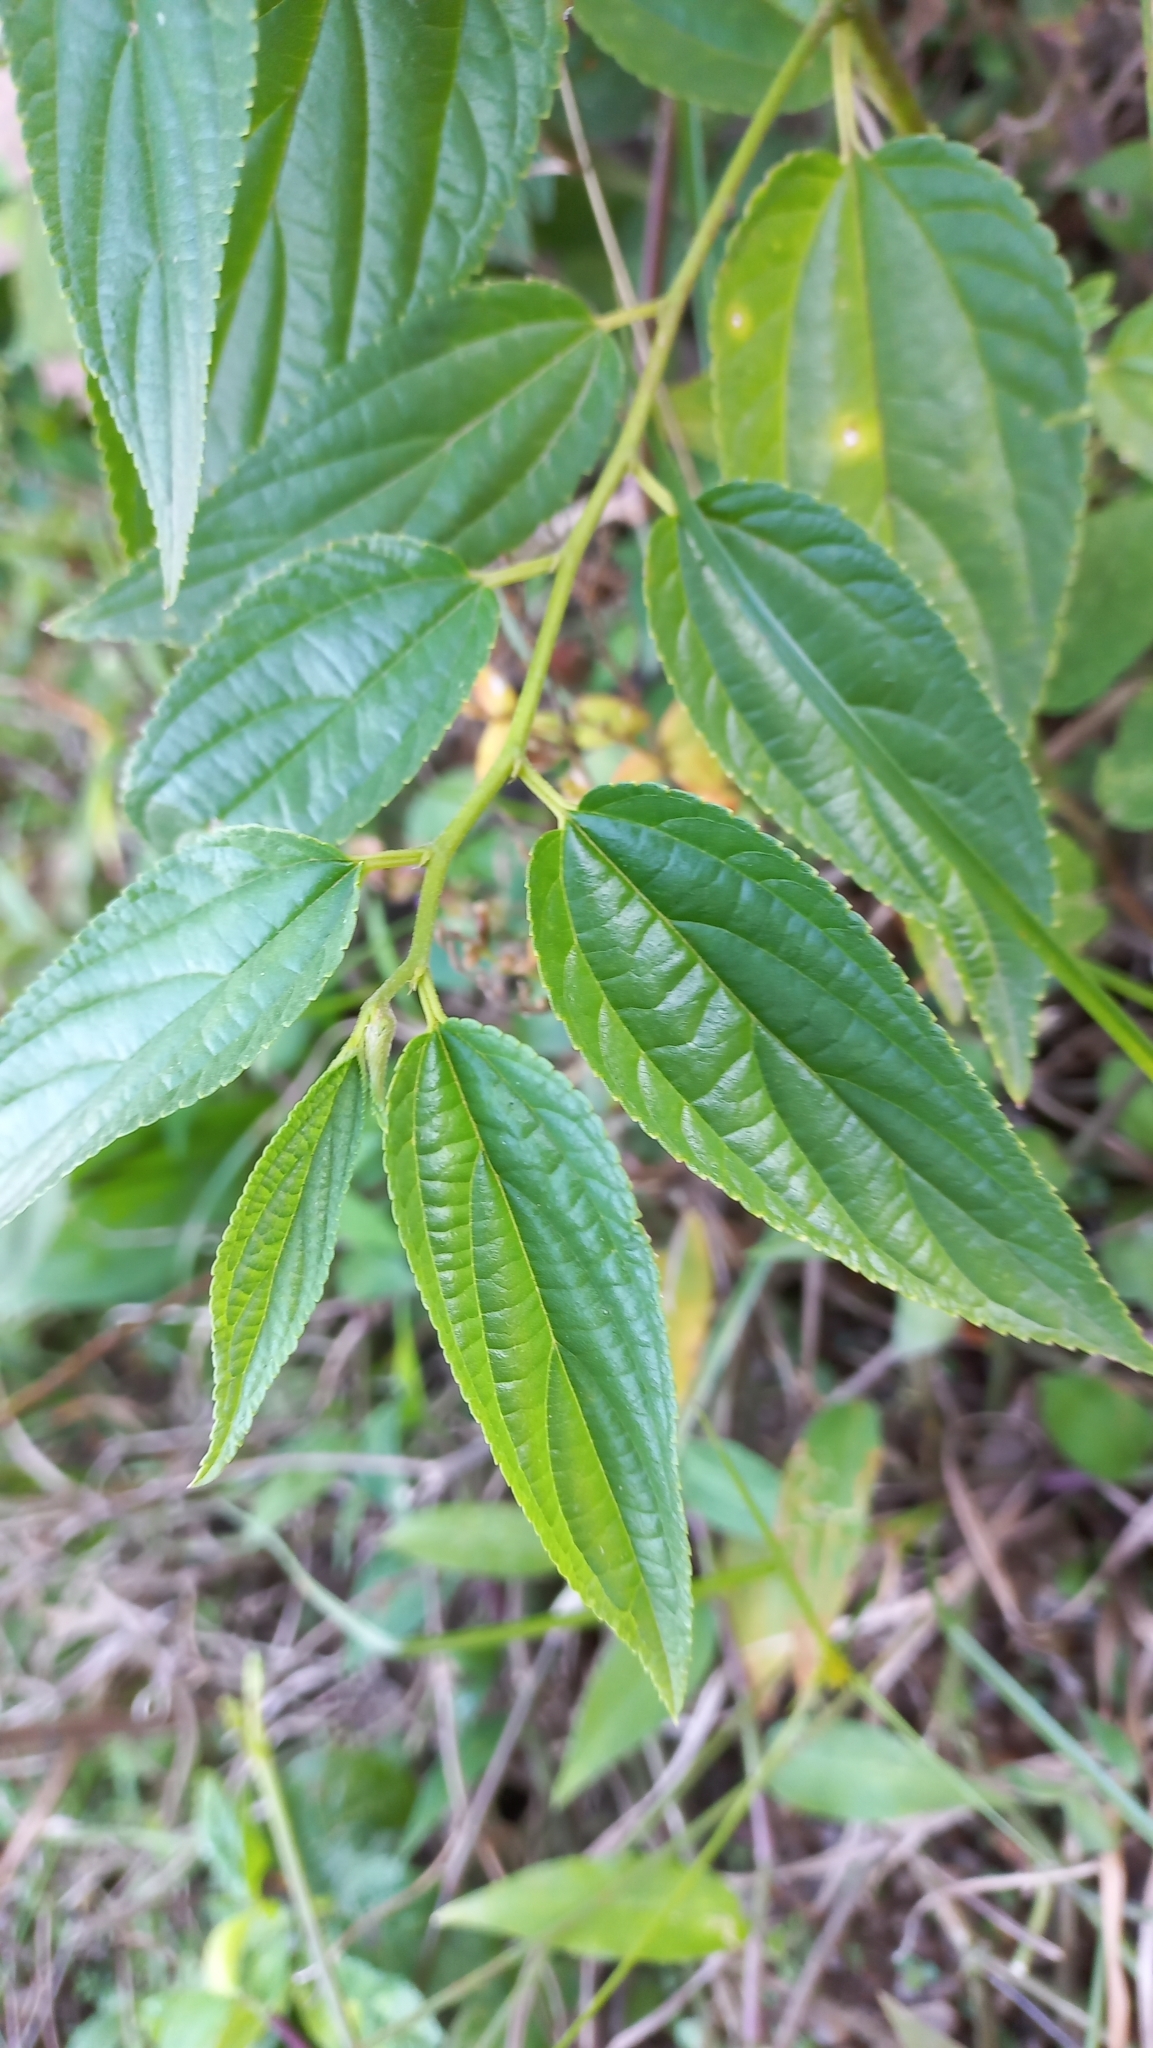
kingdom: Plantae
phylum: Tracheophyta
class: Magnoliopsida
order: Rosales
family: Cannabaceae
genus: Trema
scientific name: Trema micranthum
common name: Jamaican nettletree
